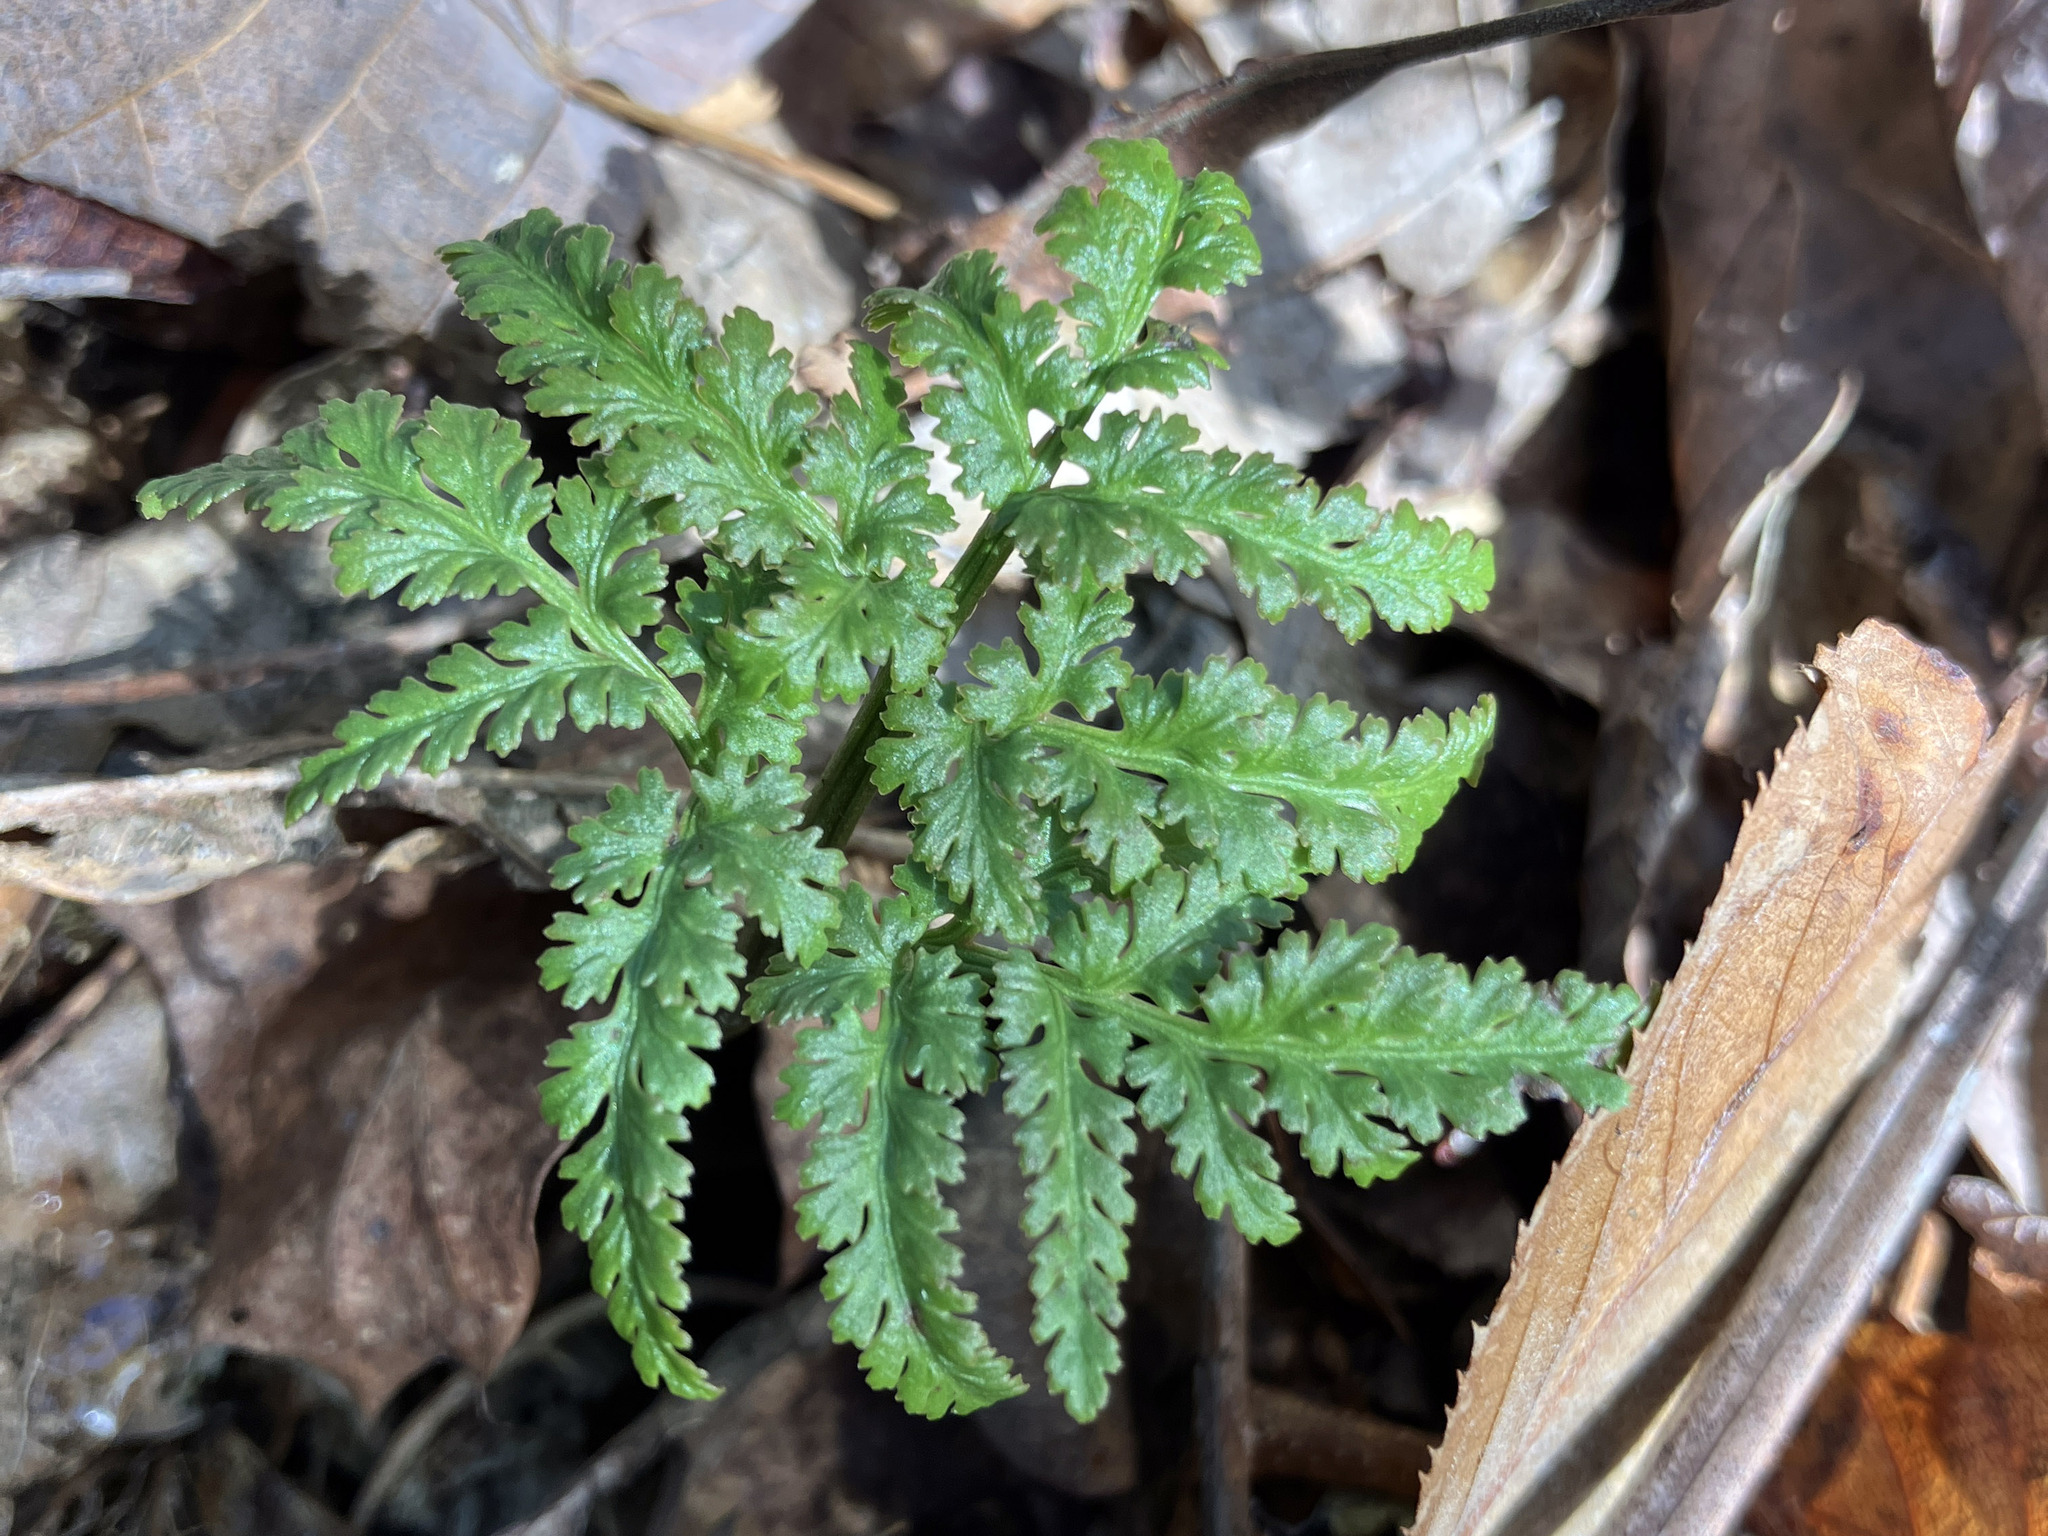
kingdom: Plantae
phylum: Tracheophyta
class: Polypodiopsida
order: Ophioglossales
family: Ophioglossaceae
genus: Sceptridium
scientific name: Sceptridium dissectum
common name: Cut-leaved grapefern
